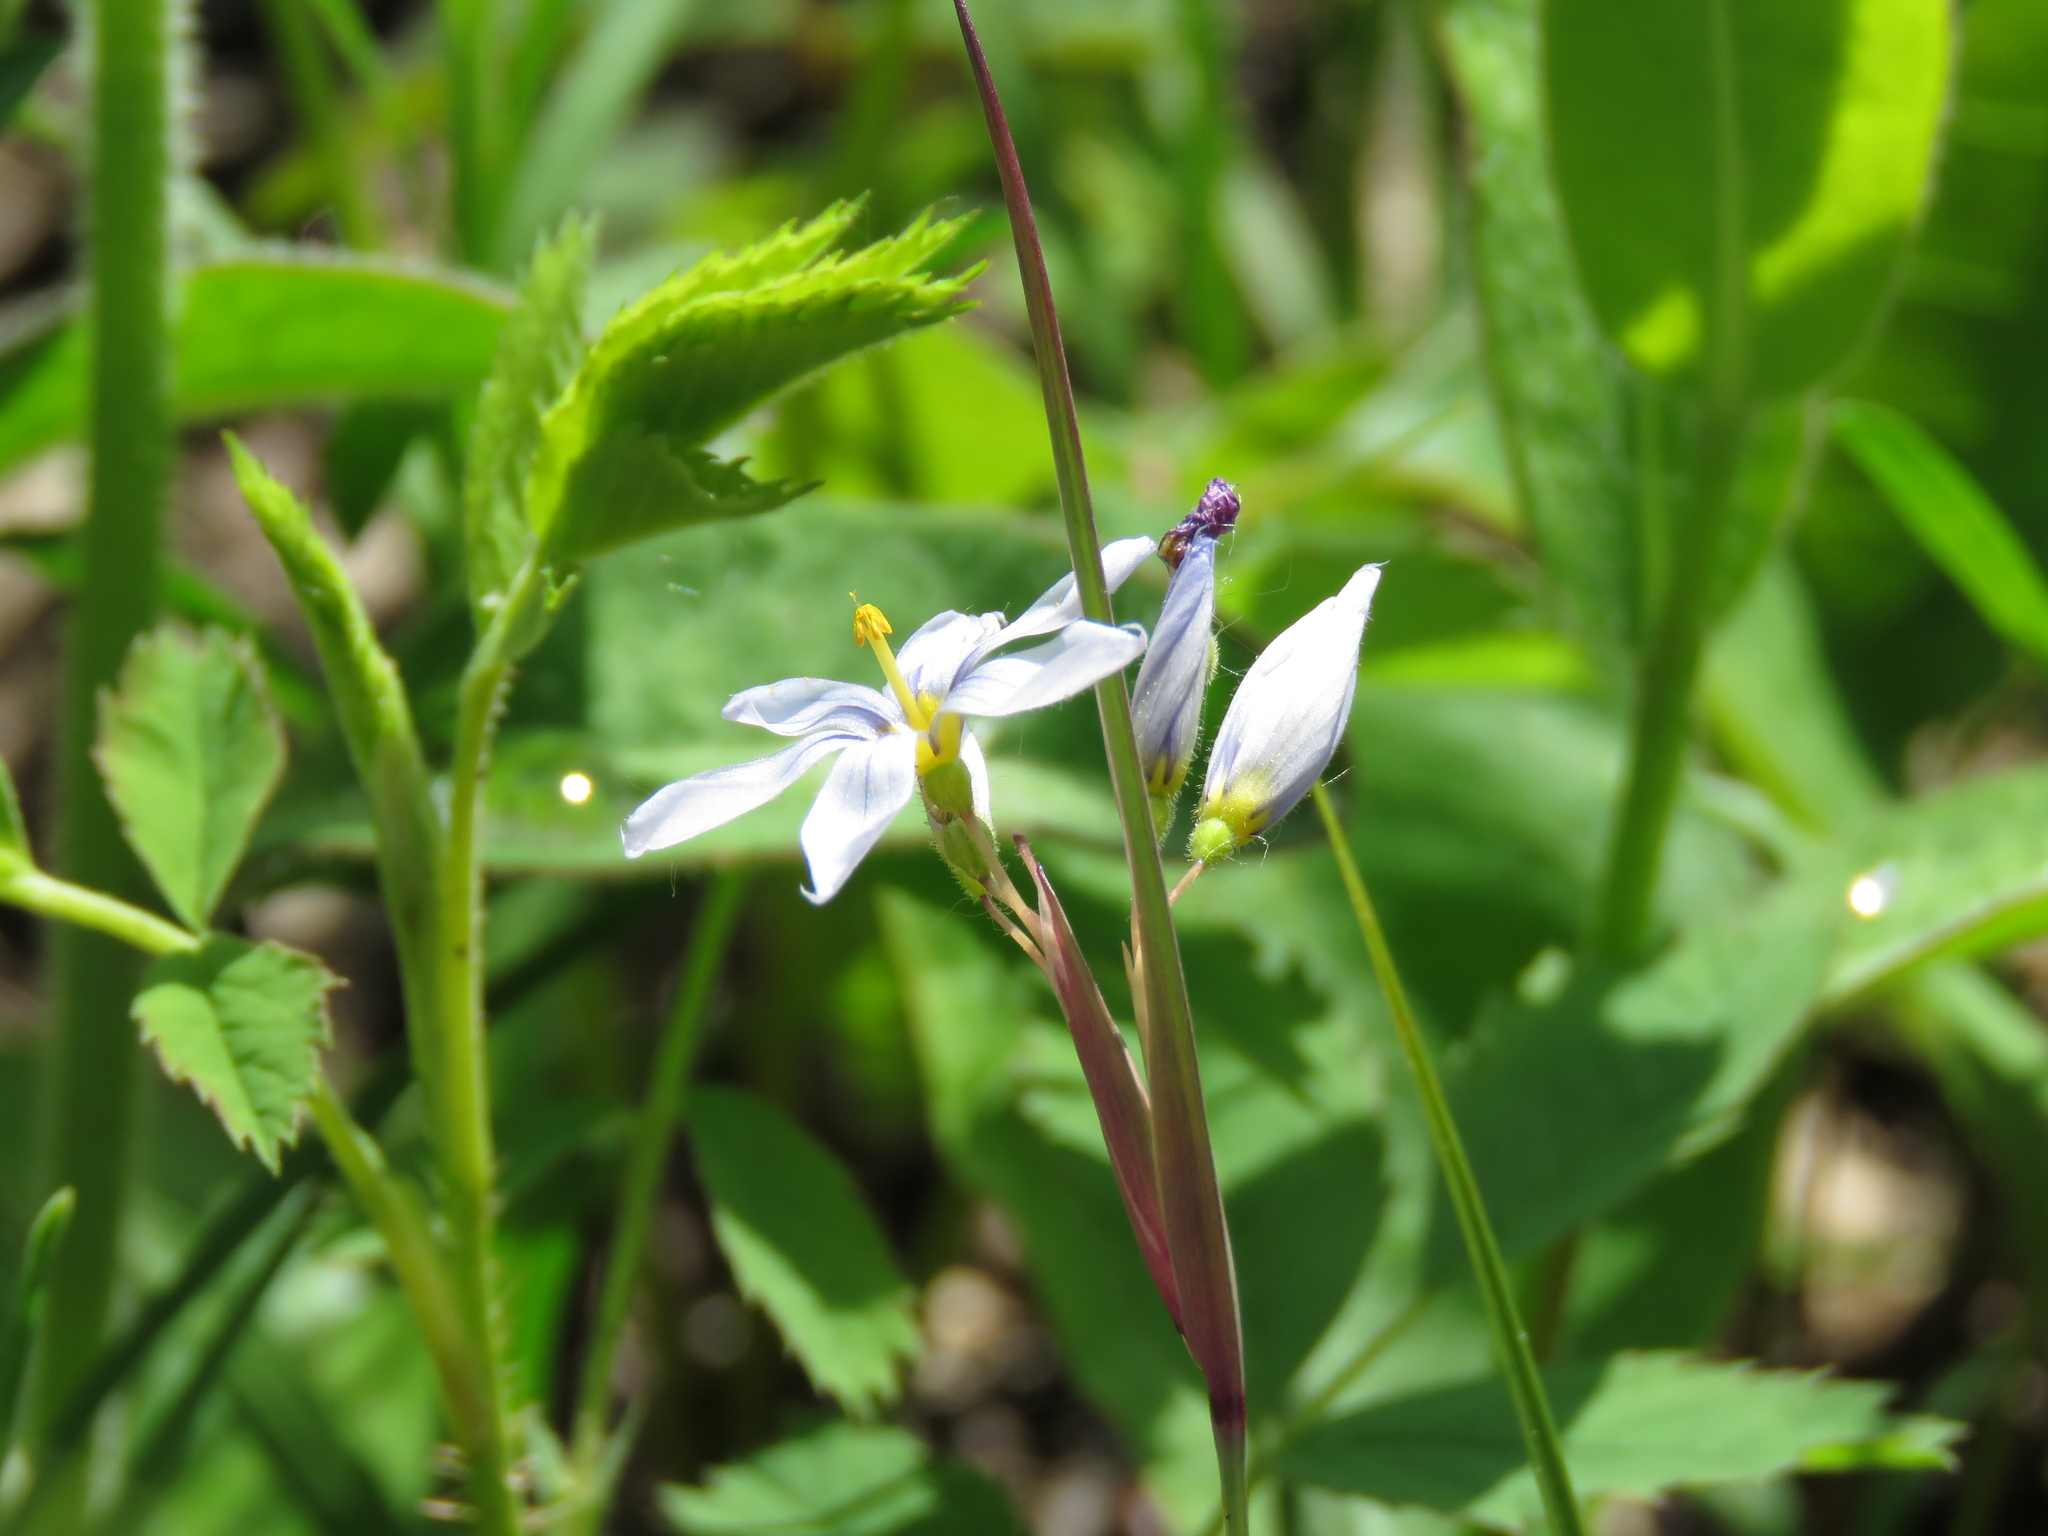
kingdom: Plantae
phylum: Tracheophyta
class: Liliopsida
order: Asparagales
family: Iridaceae
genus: Sisyrinchium
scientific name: Sisyrinchium albidum
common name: Pale blue-eyed-grass
